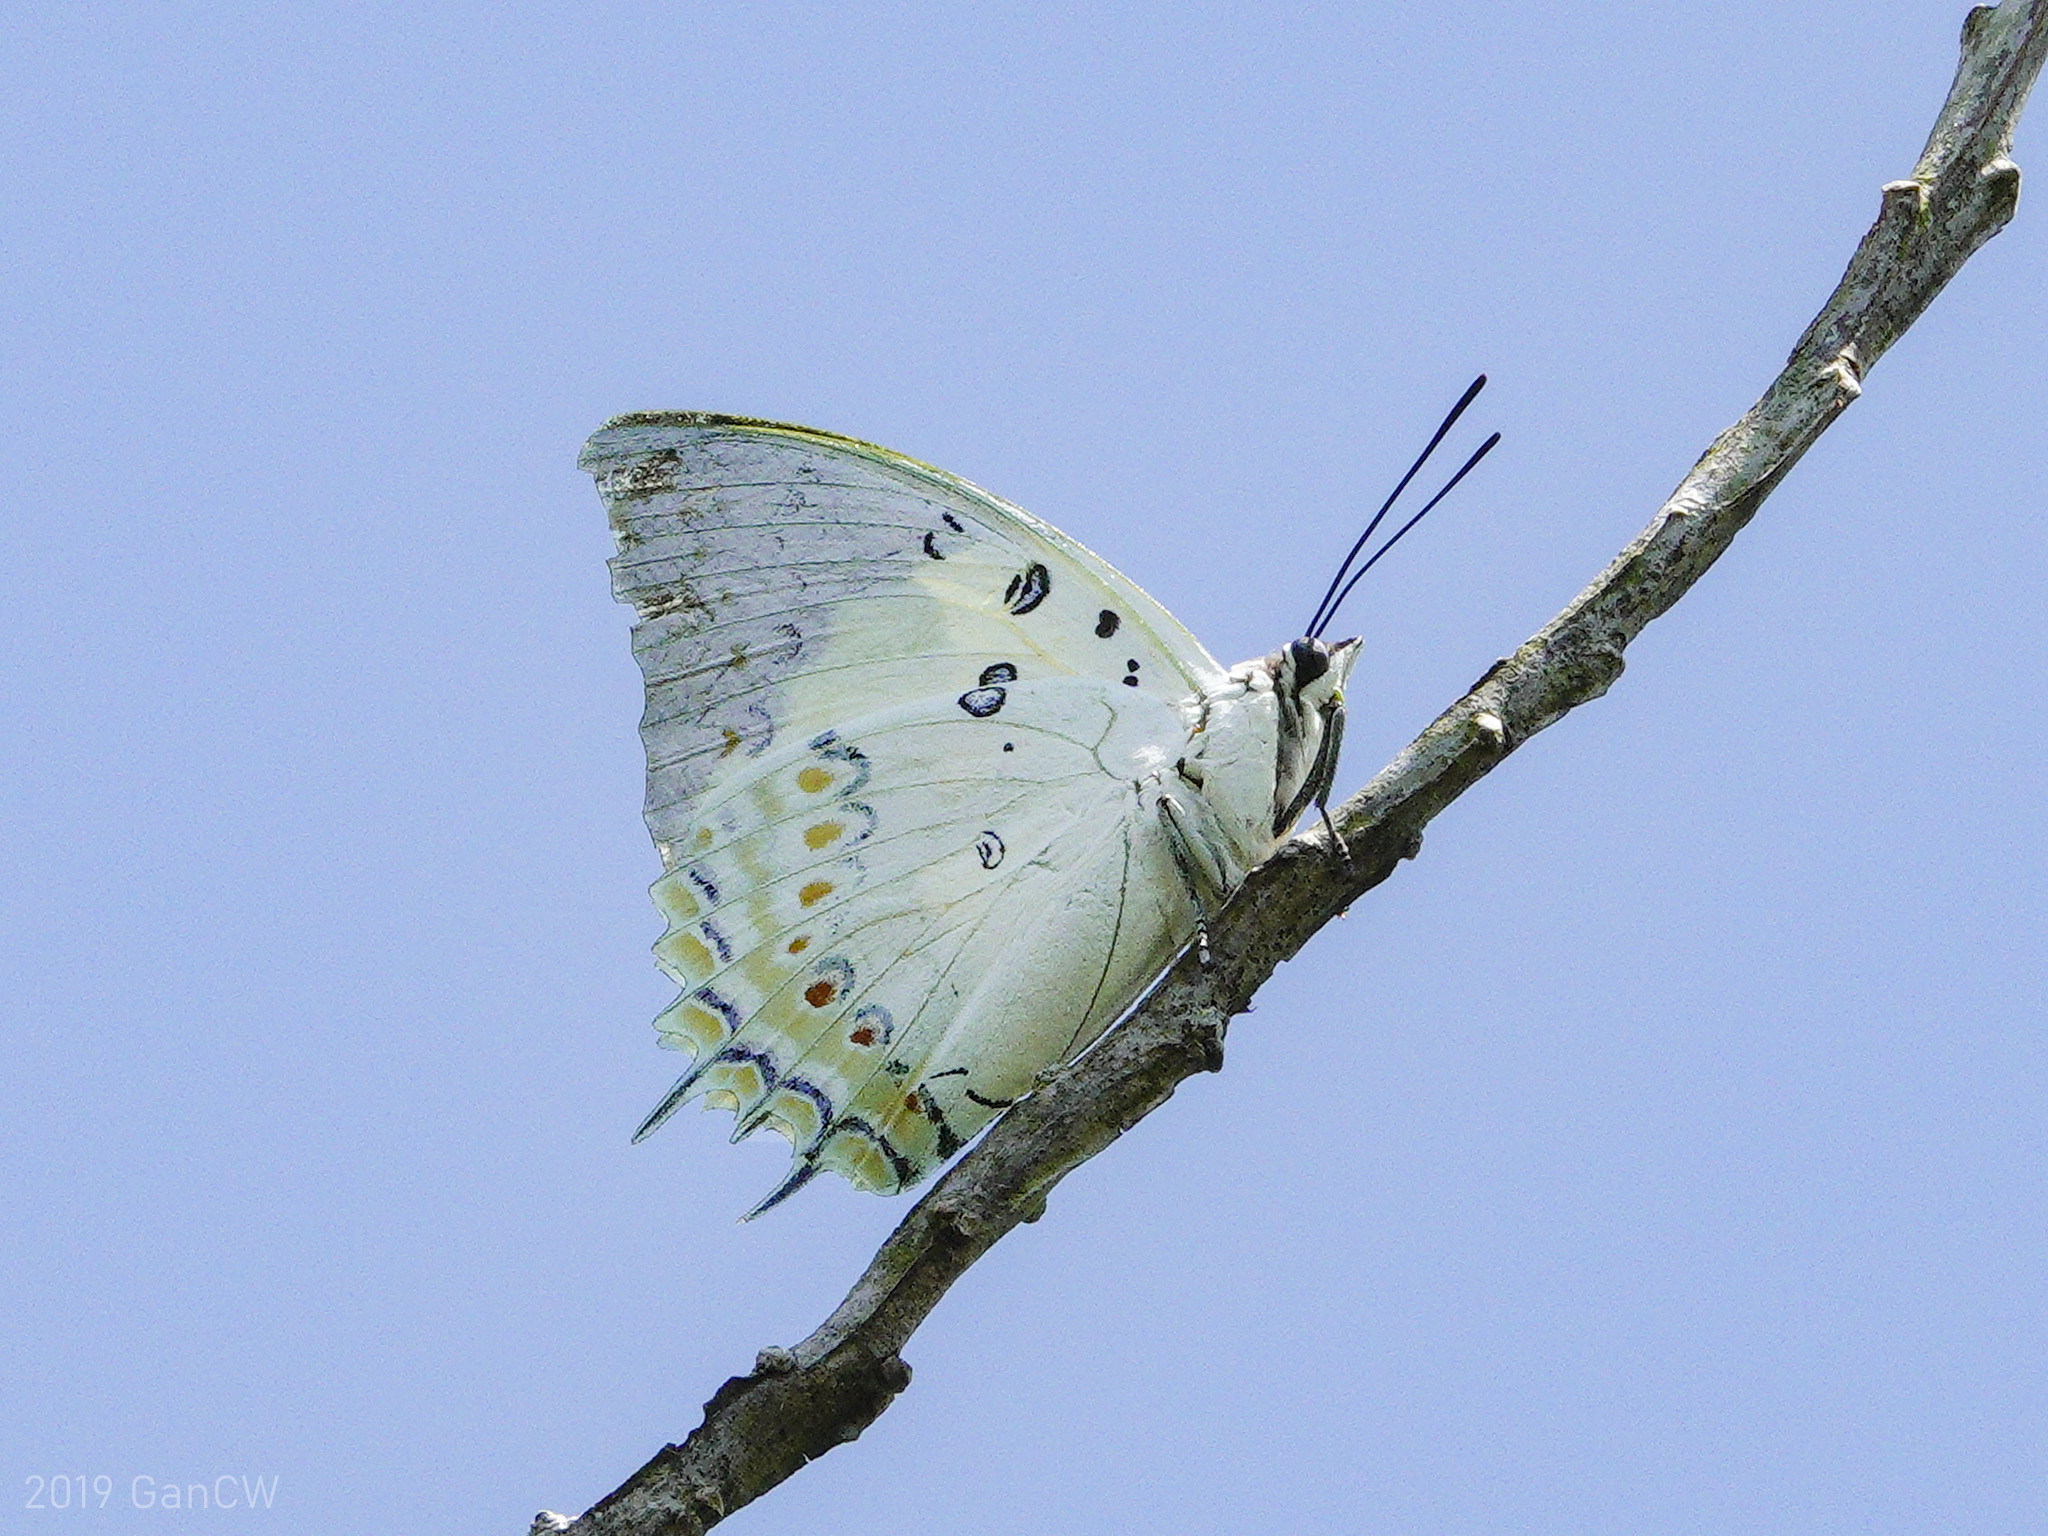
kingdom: Animalia
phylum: Arthropoda
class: Insecta
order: Lepidoptera
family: Nymphalidae
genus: Polyura
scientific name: Polyura delphis
